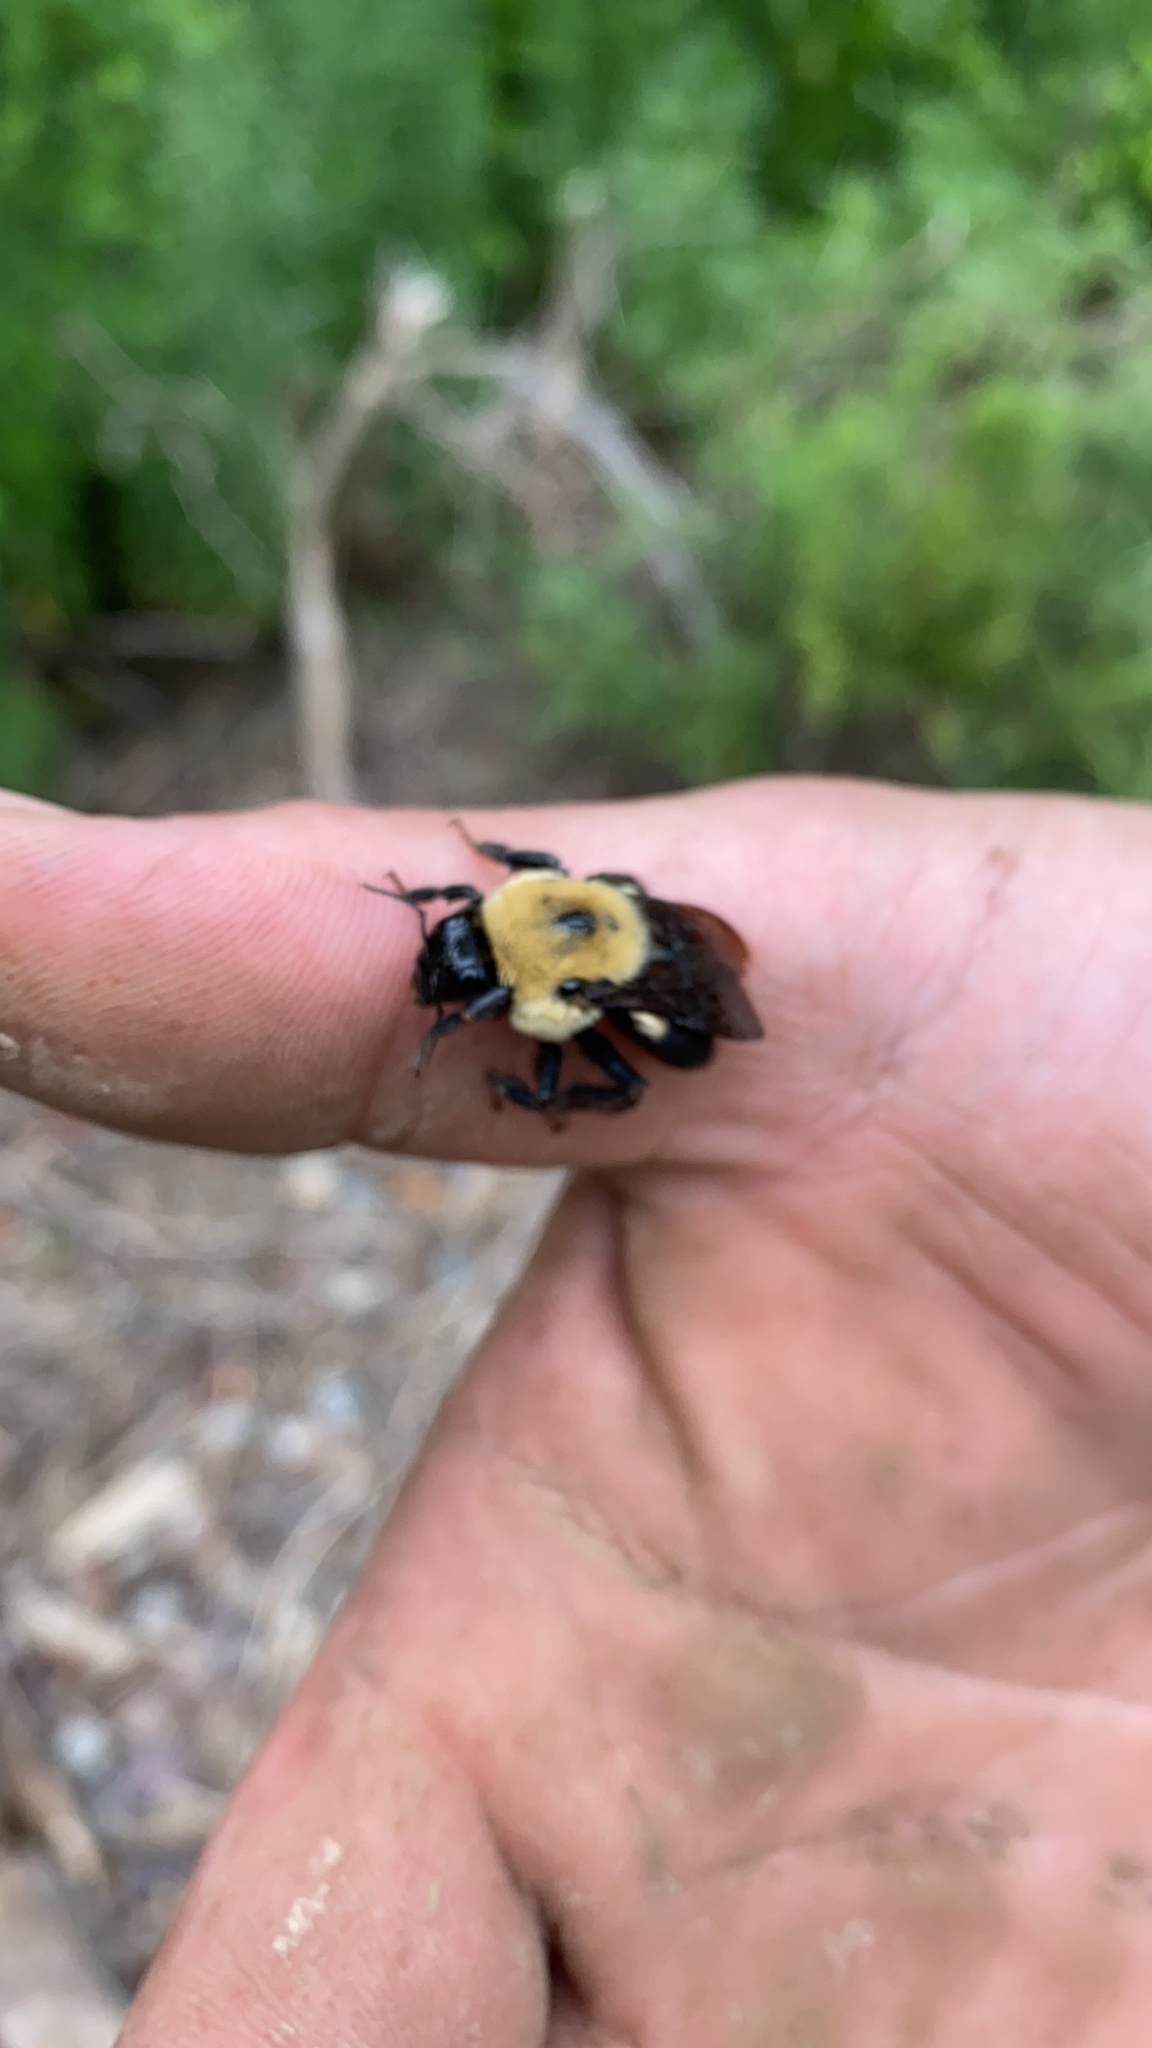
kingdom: Animalia
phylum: Arthropoda
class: Insecta
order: Hymenoptera
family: Apidae
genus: Bombus
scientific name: Bombus griseocollis
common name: Brown-belted bumble bee
